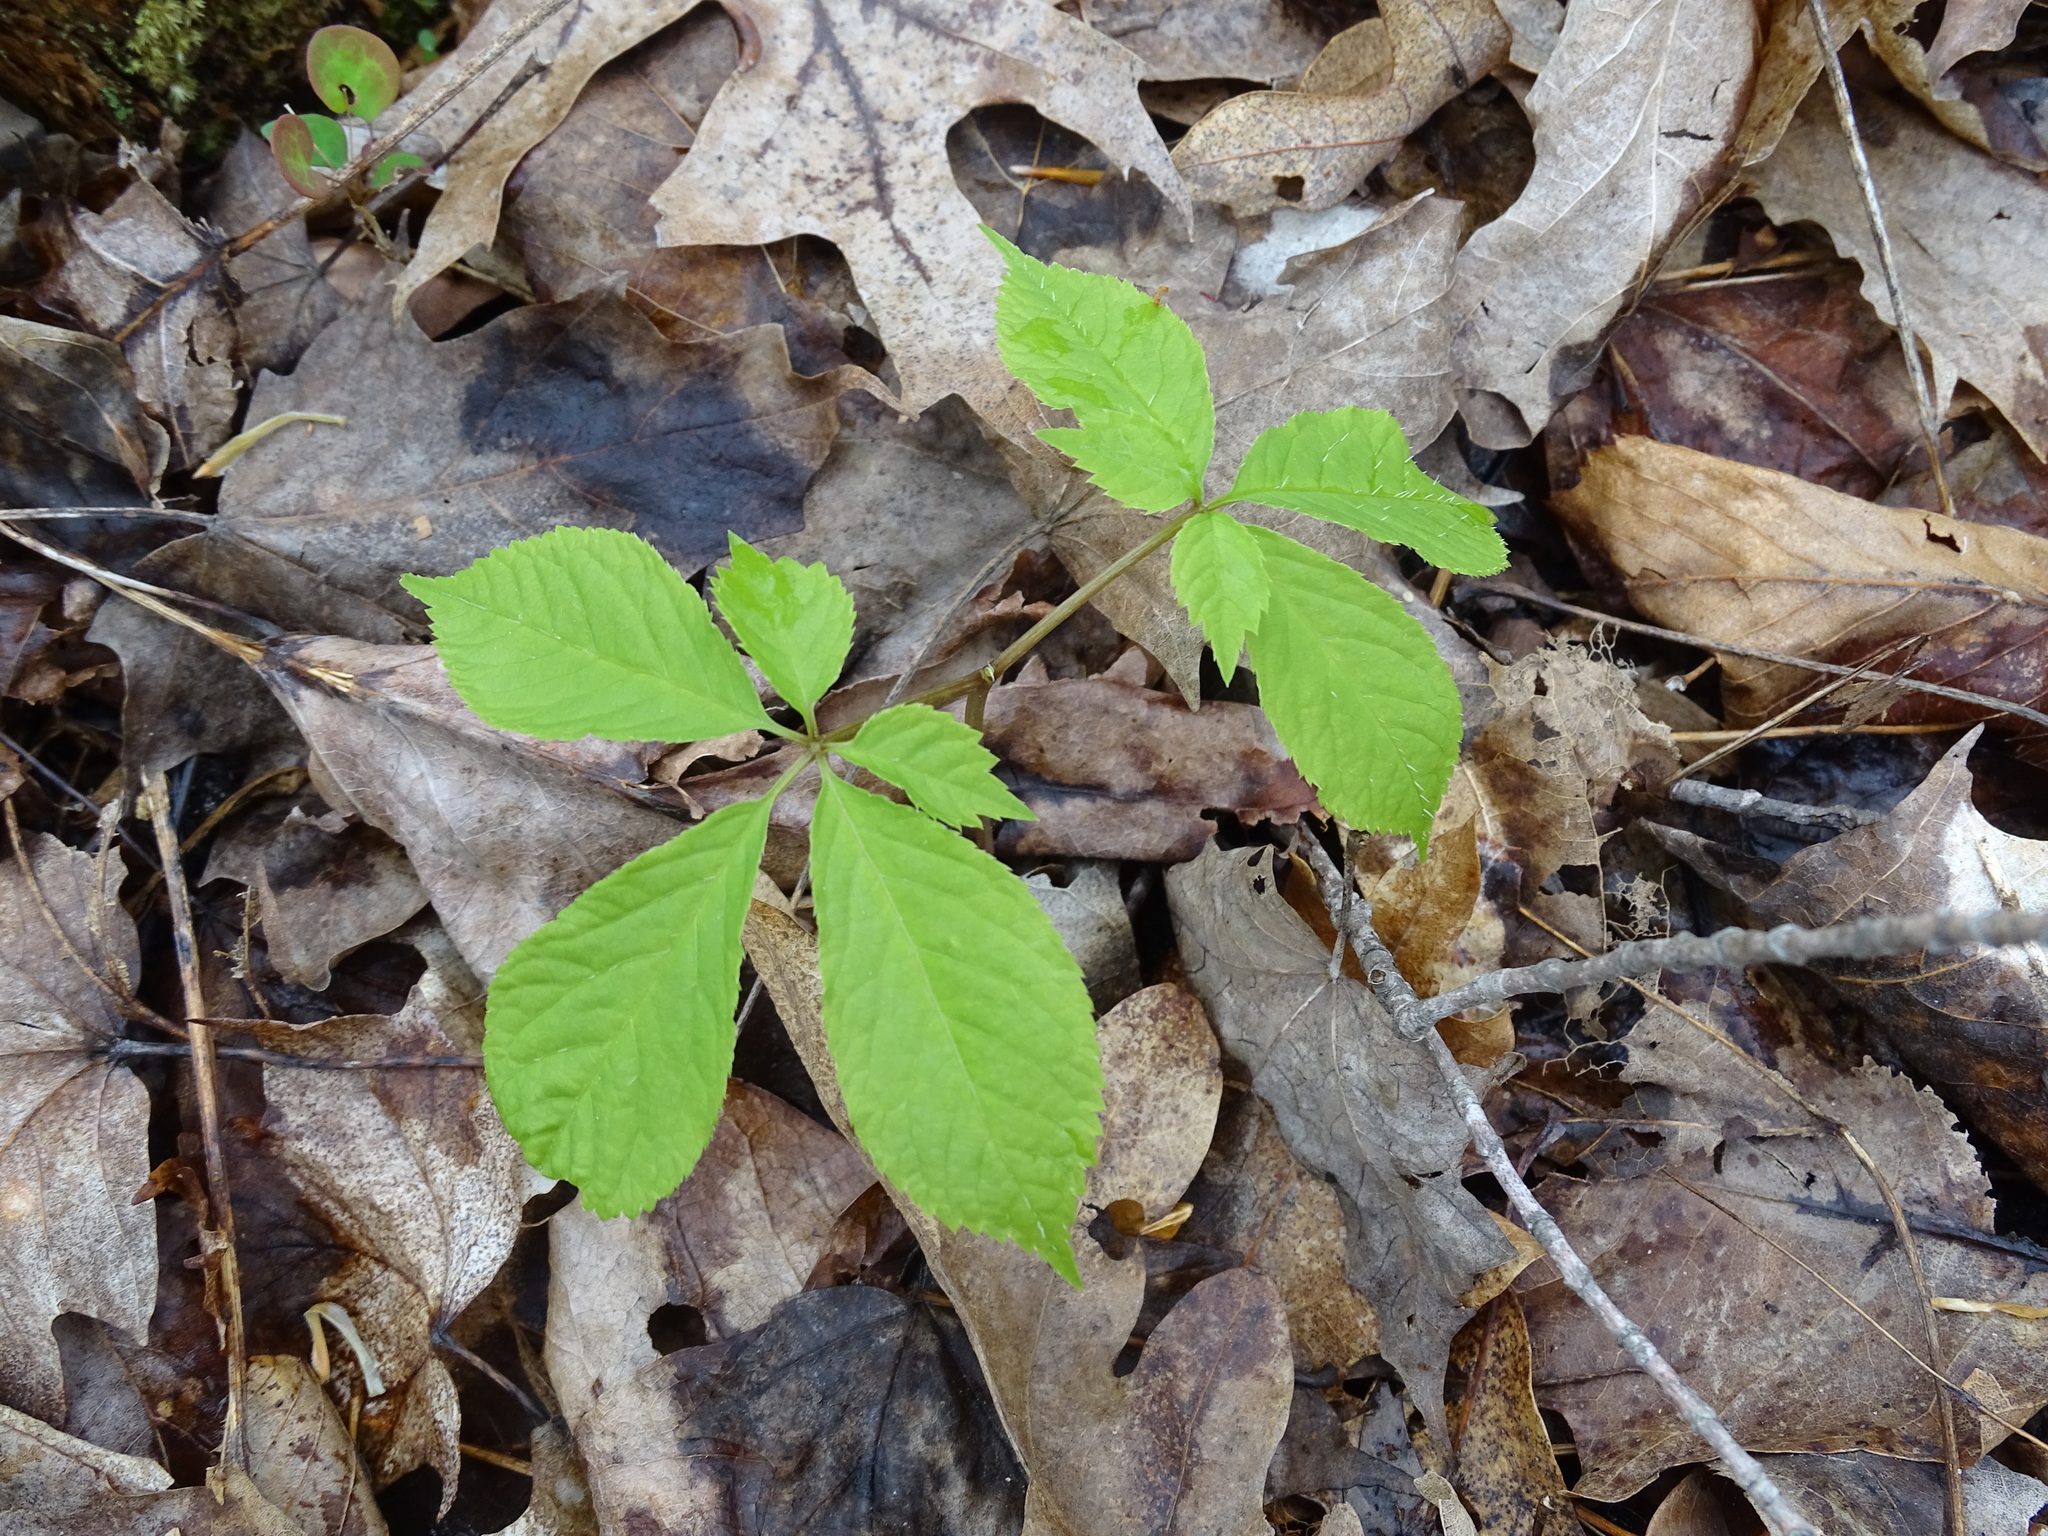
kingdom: Plantae
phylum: Tracheophyta
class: Magnoliopsida
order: Apiales
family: Araliaceae
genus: Panax
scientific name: Panax quinquefolius
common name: American ginseng
